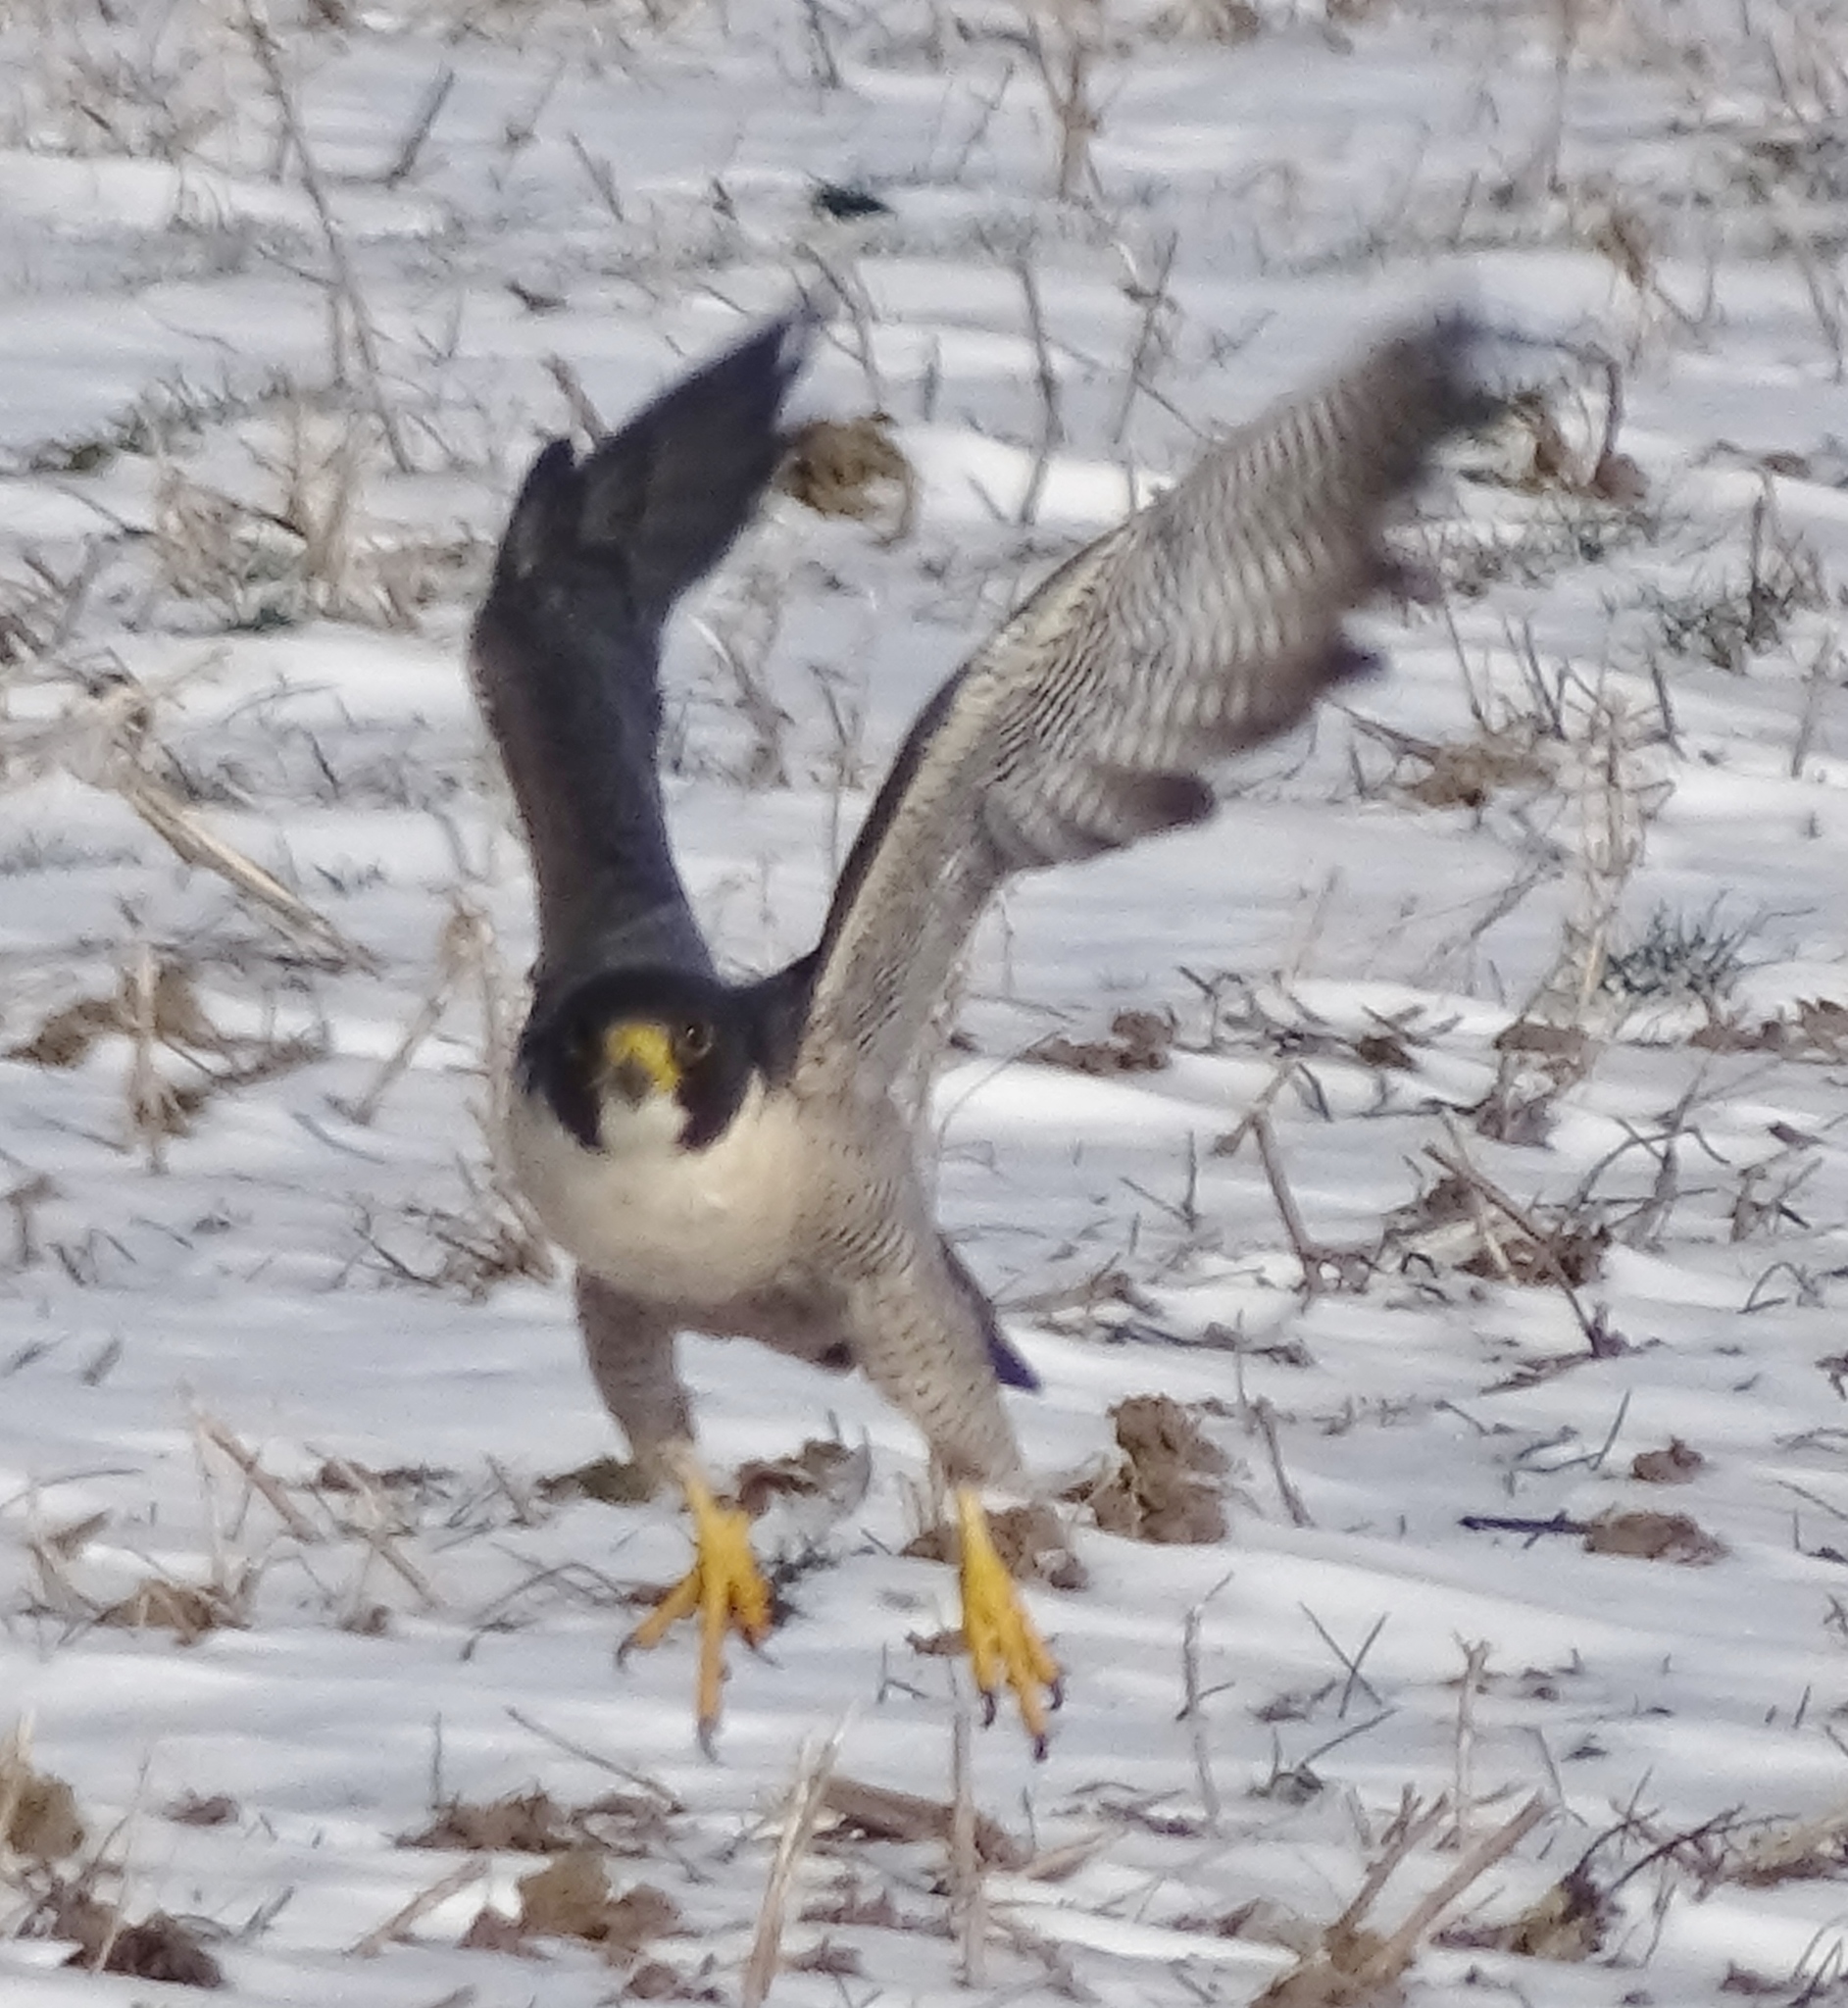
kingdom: Animalia
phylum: Chordata
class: Aves
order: Falconiformes
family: Falconidae
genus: Falco
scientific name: Falco peregrinus
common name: Peregrine falcon
